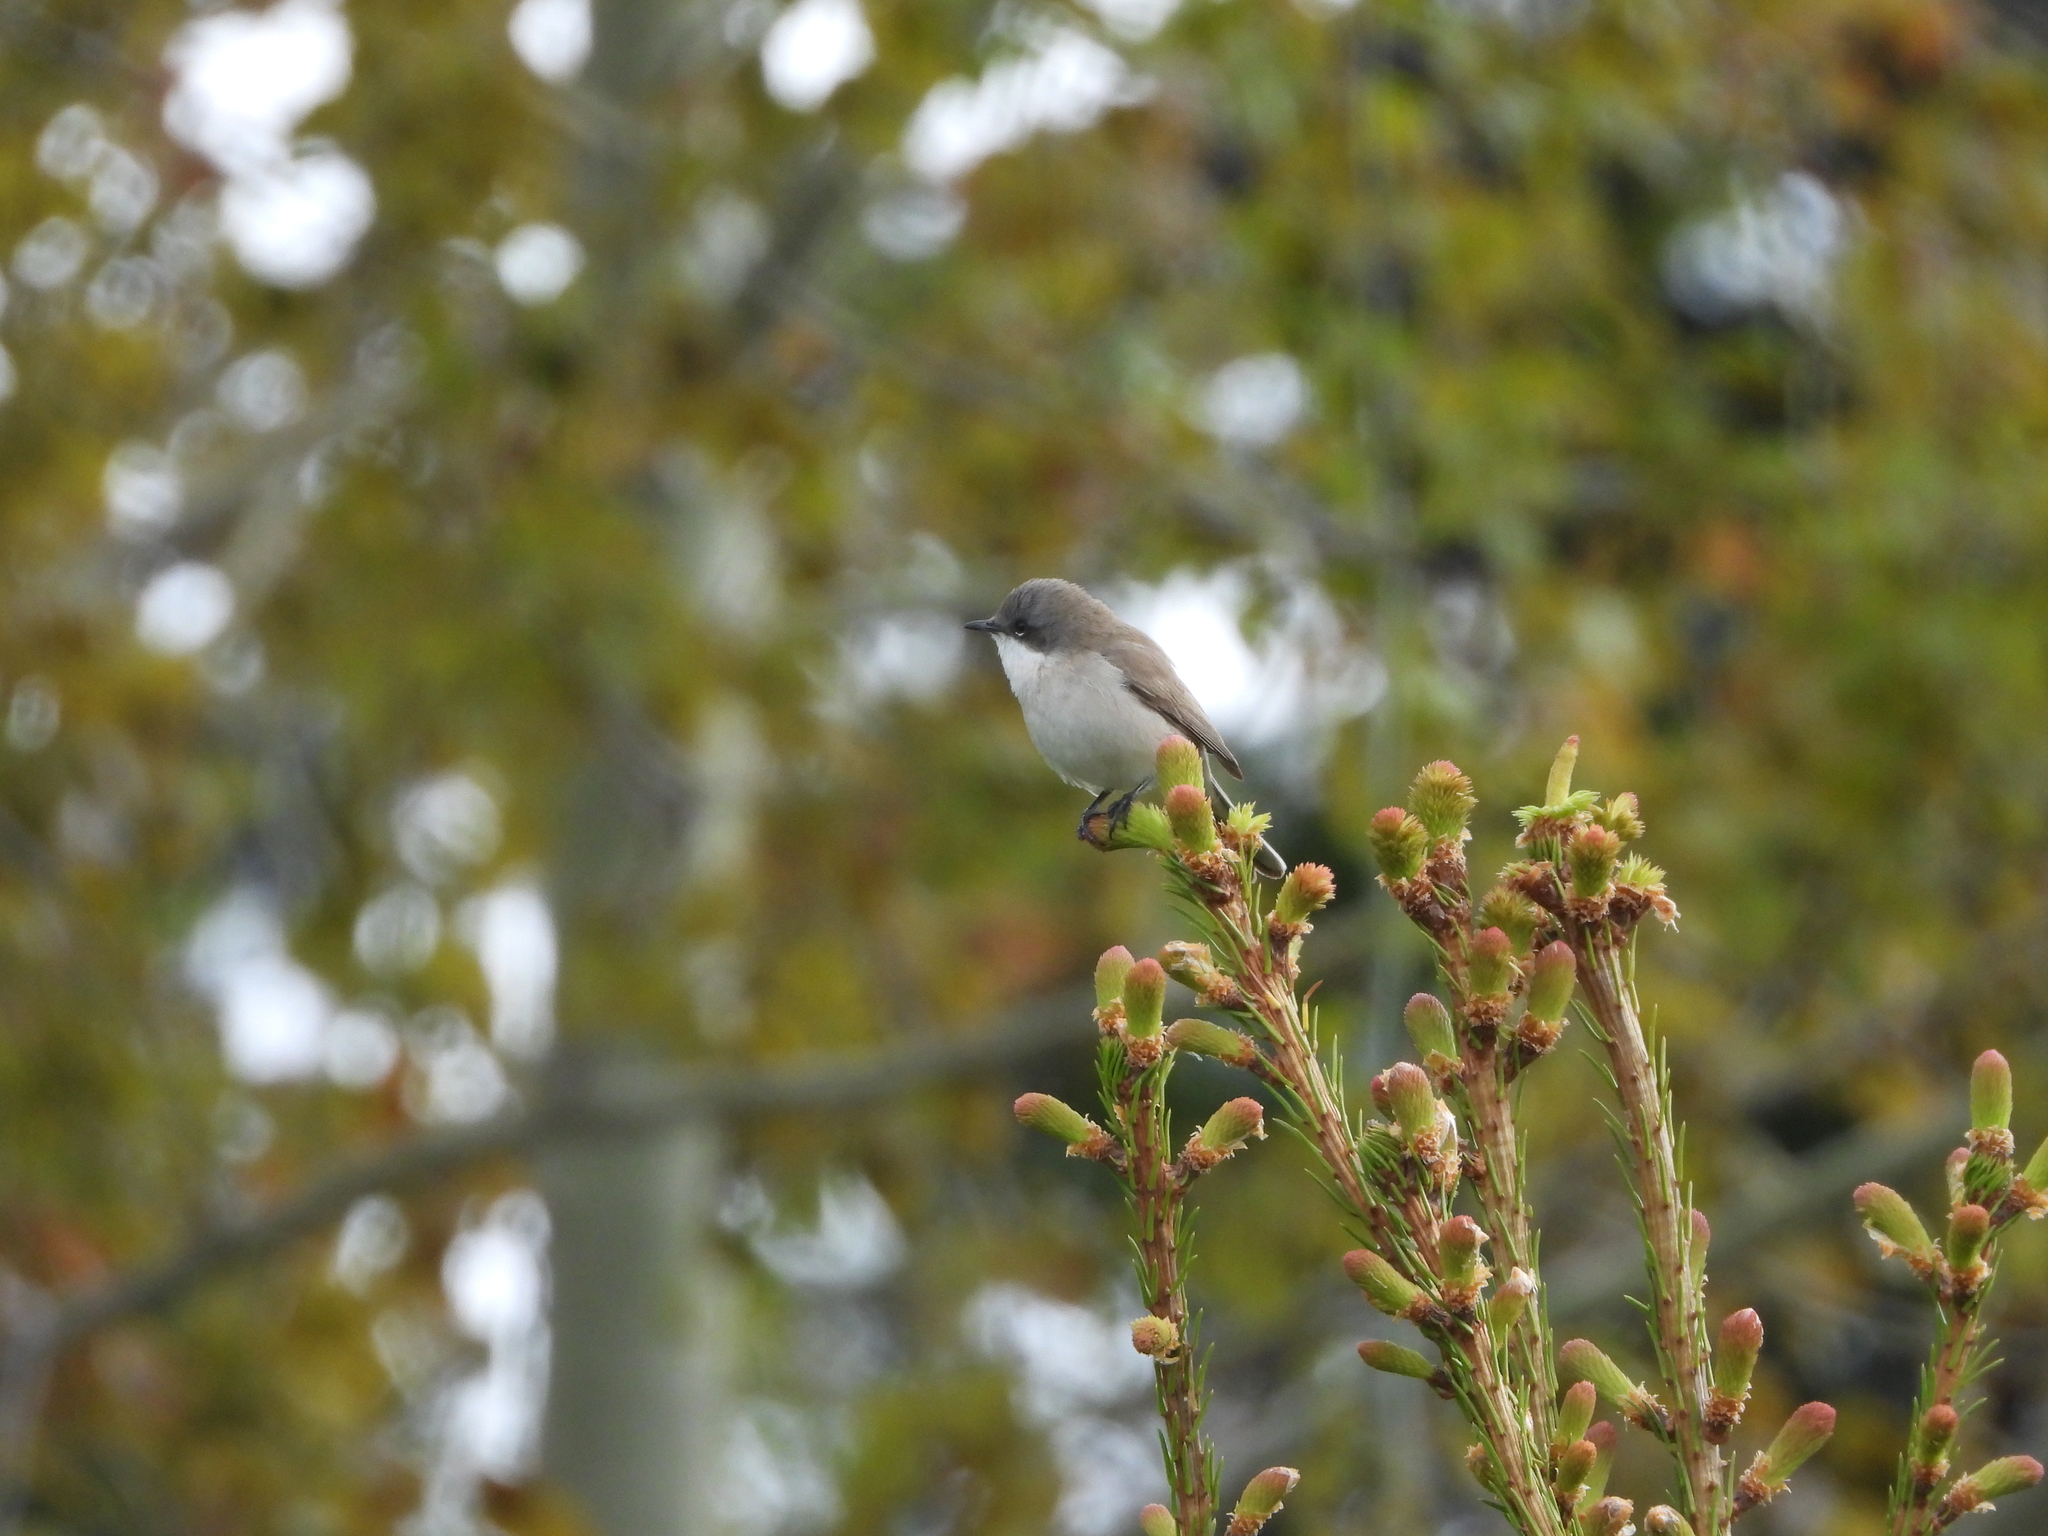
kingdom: Animalia
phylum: Chordata
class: Aves
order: Passeriformes
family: Sylviidae
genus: Sylvia
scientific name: Sylvia curruca
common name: Lesser whitethroat
